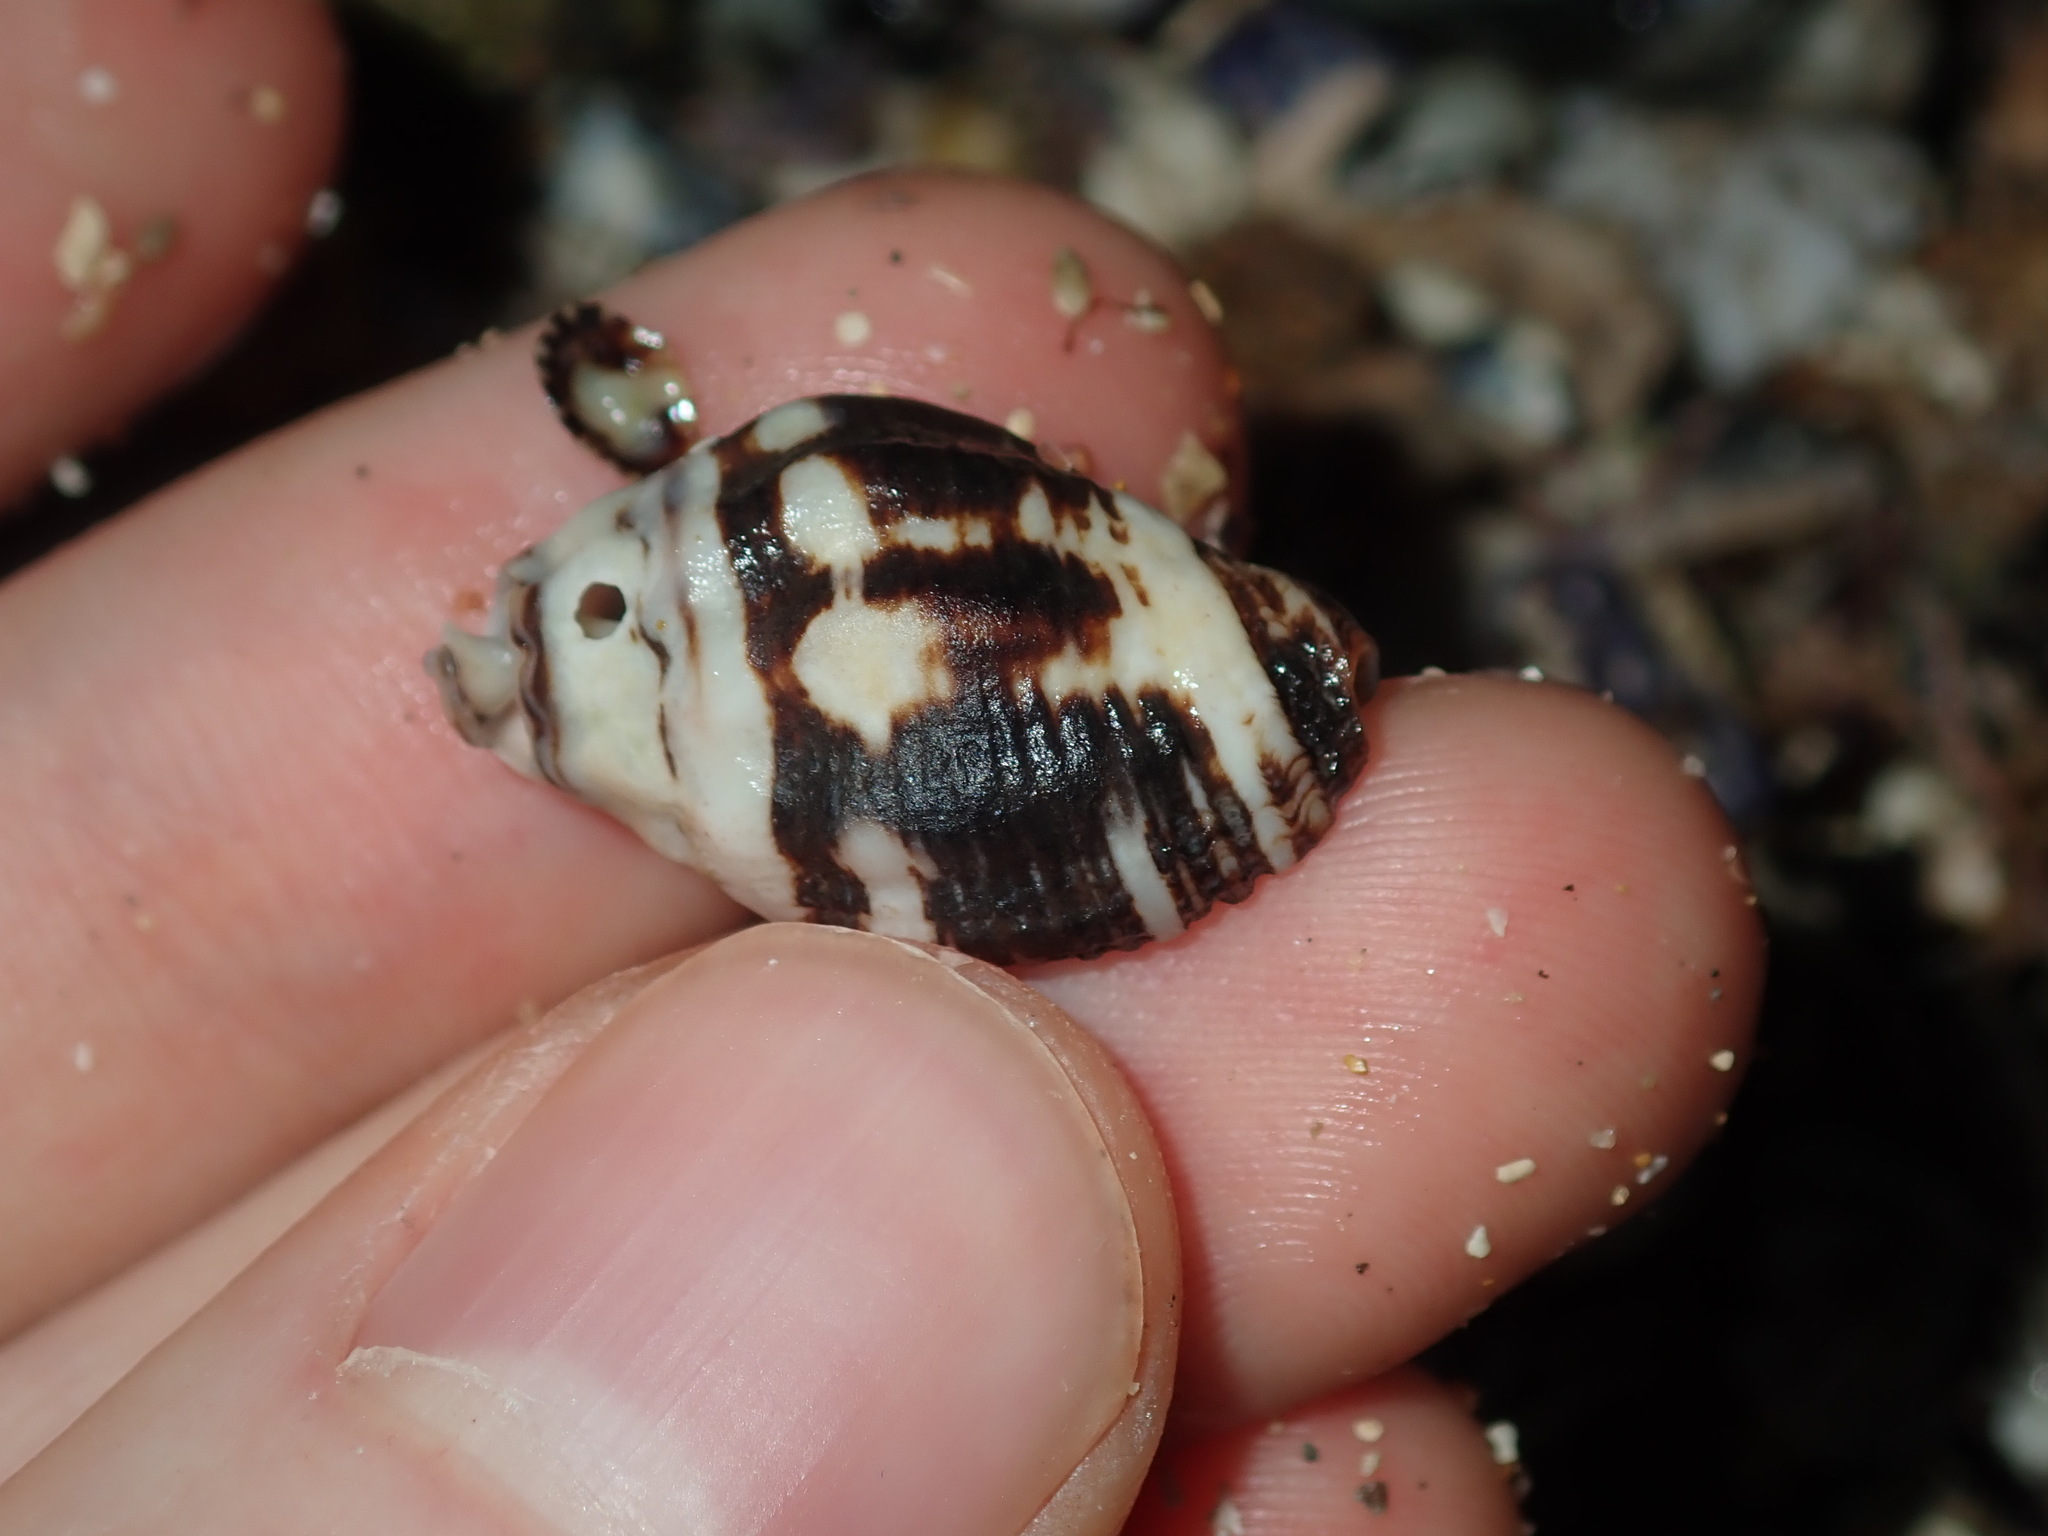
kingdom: Animalia
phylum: Mollusca
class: Gastropoda
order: Neogastropoda
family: Muricidae
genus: Cronia
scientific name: Cronia aurantiaca
